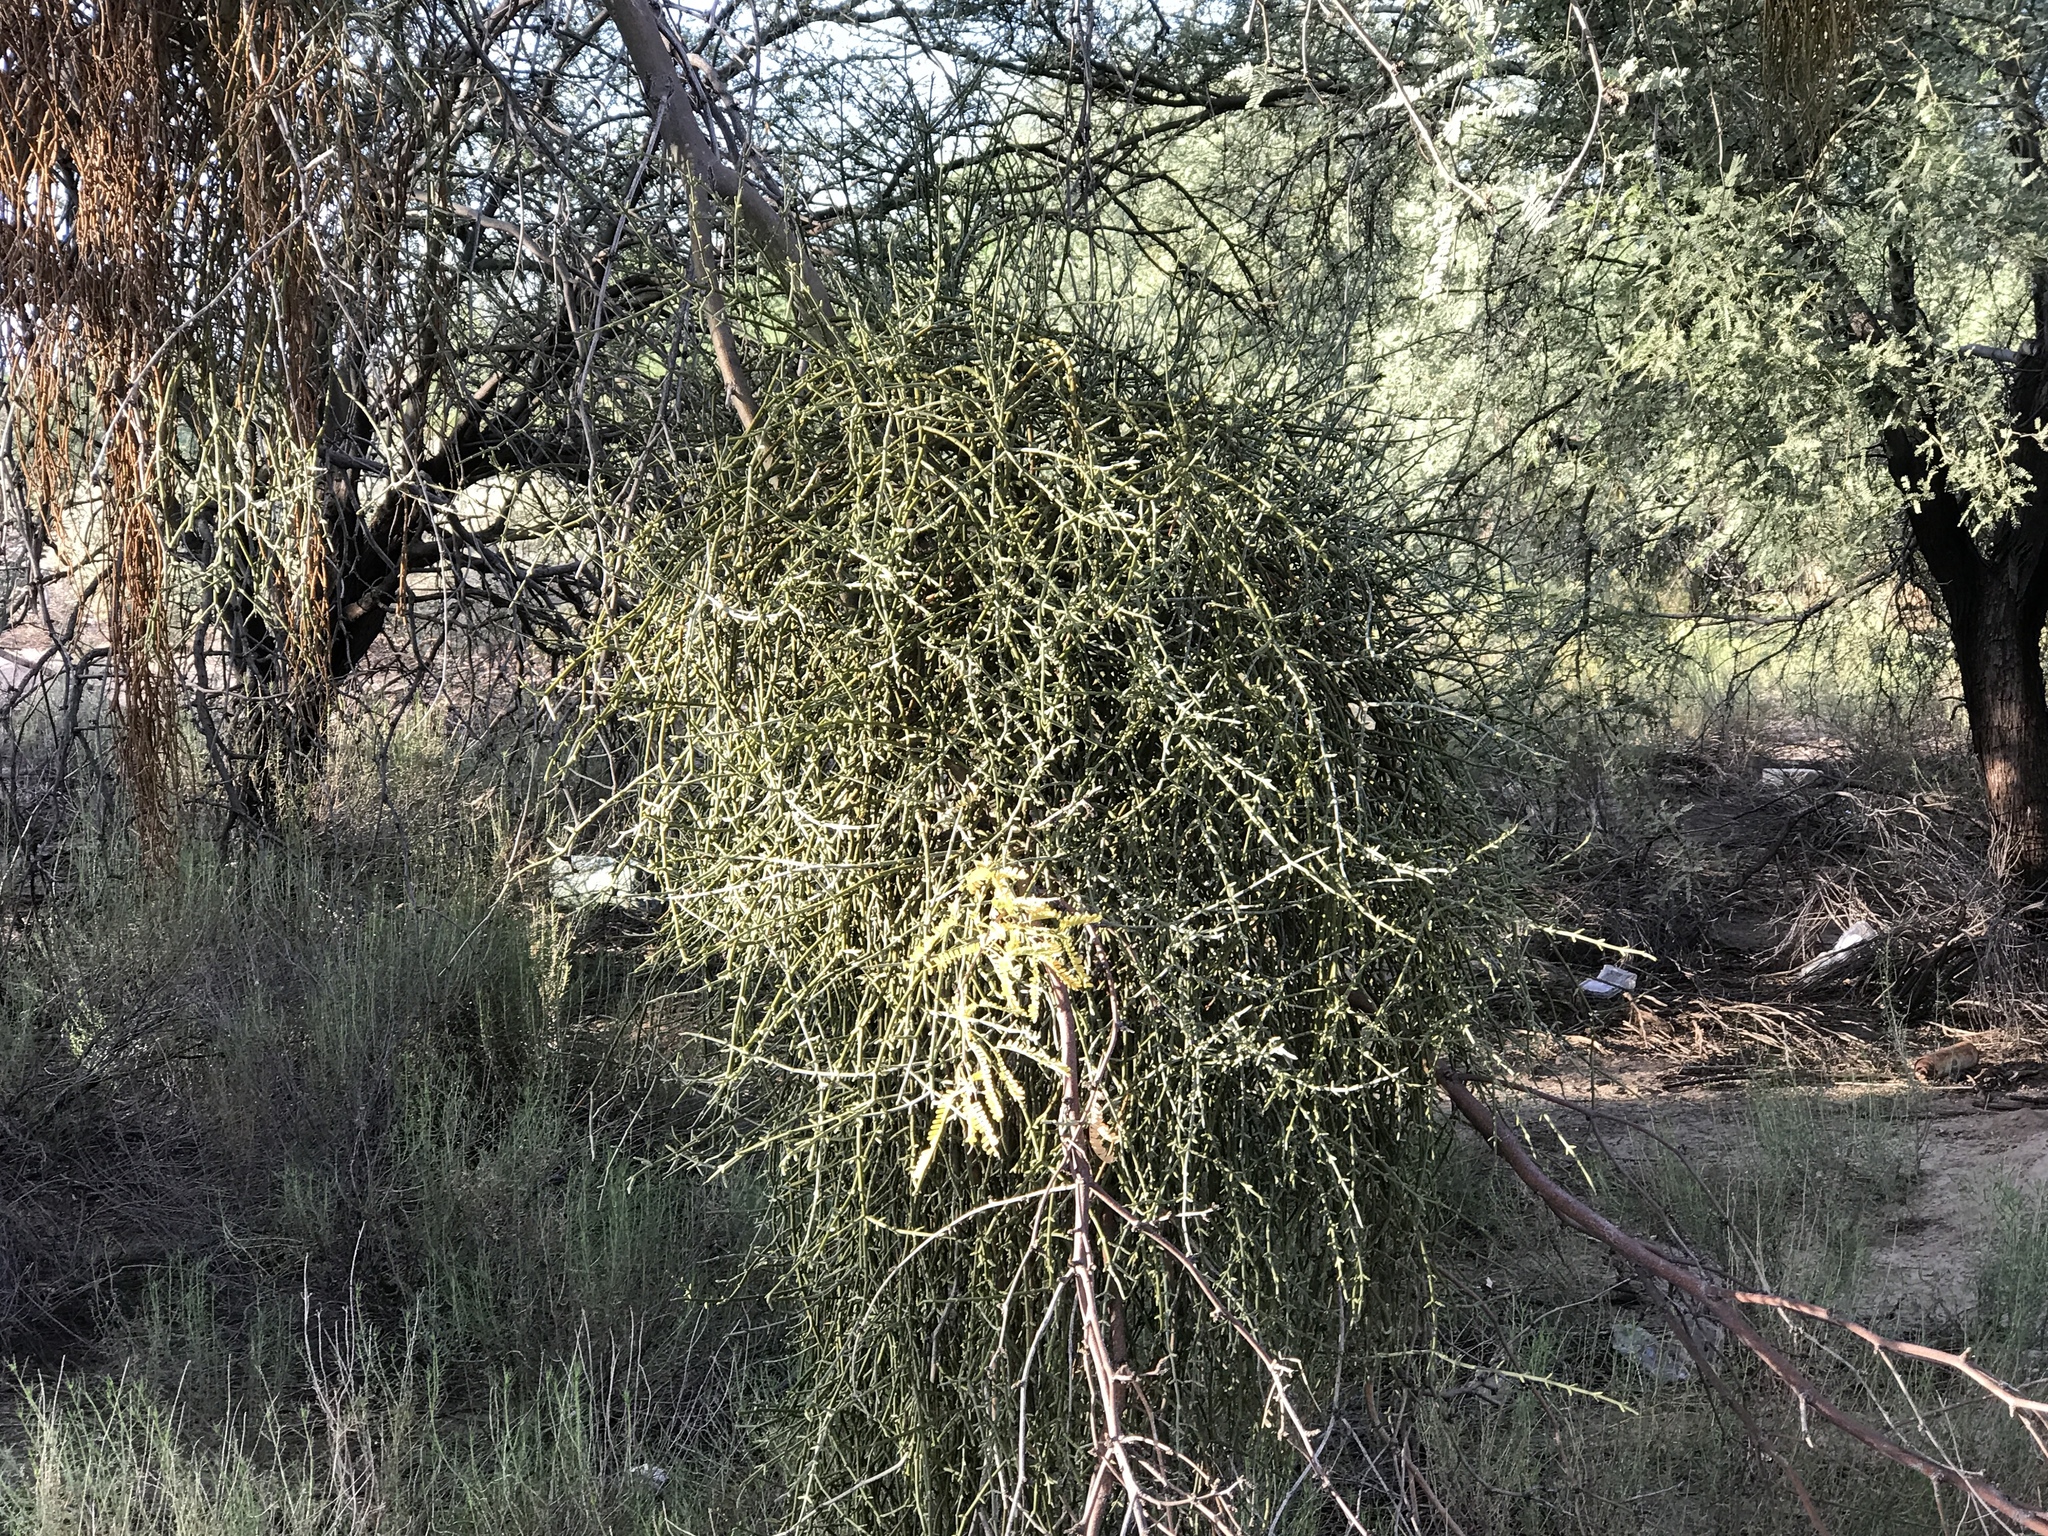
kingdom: Plantae
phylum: Tracheophyta
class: Magnoliopsida
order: Santalales
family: Viscaceae
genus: Phoradendron
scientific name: Phoradendron californicum
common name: Acacia mistletoe
